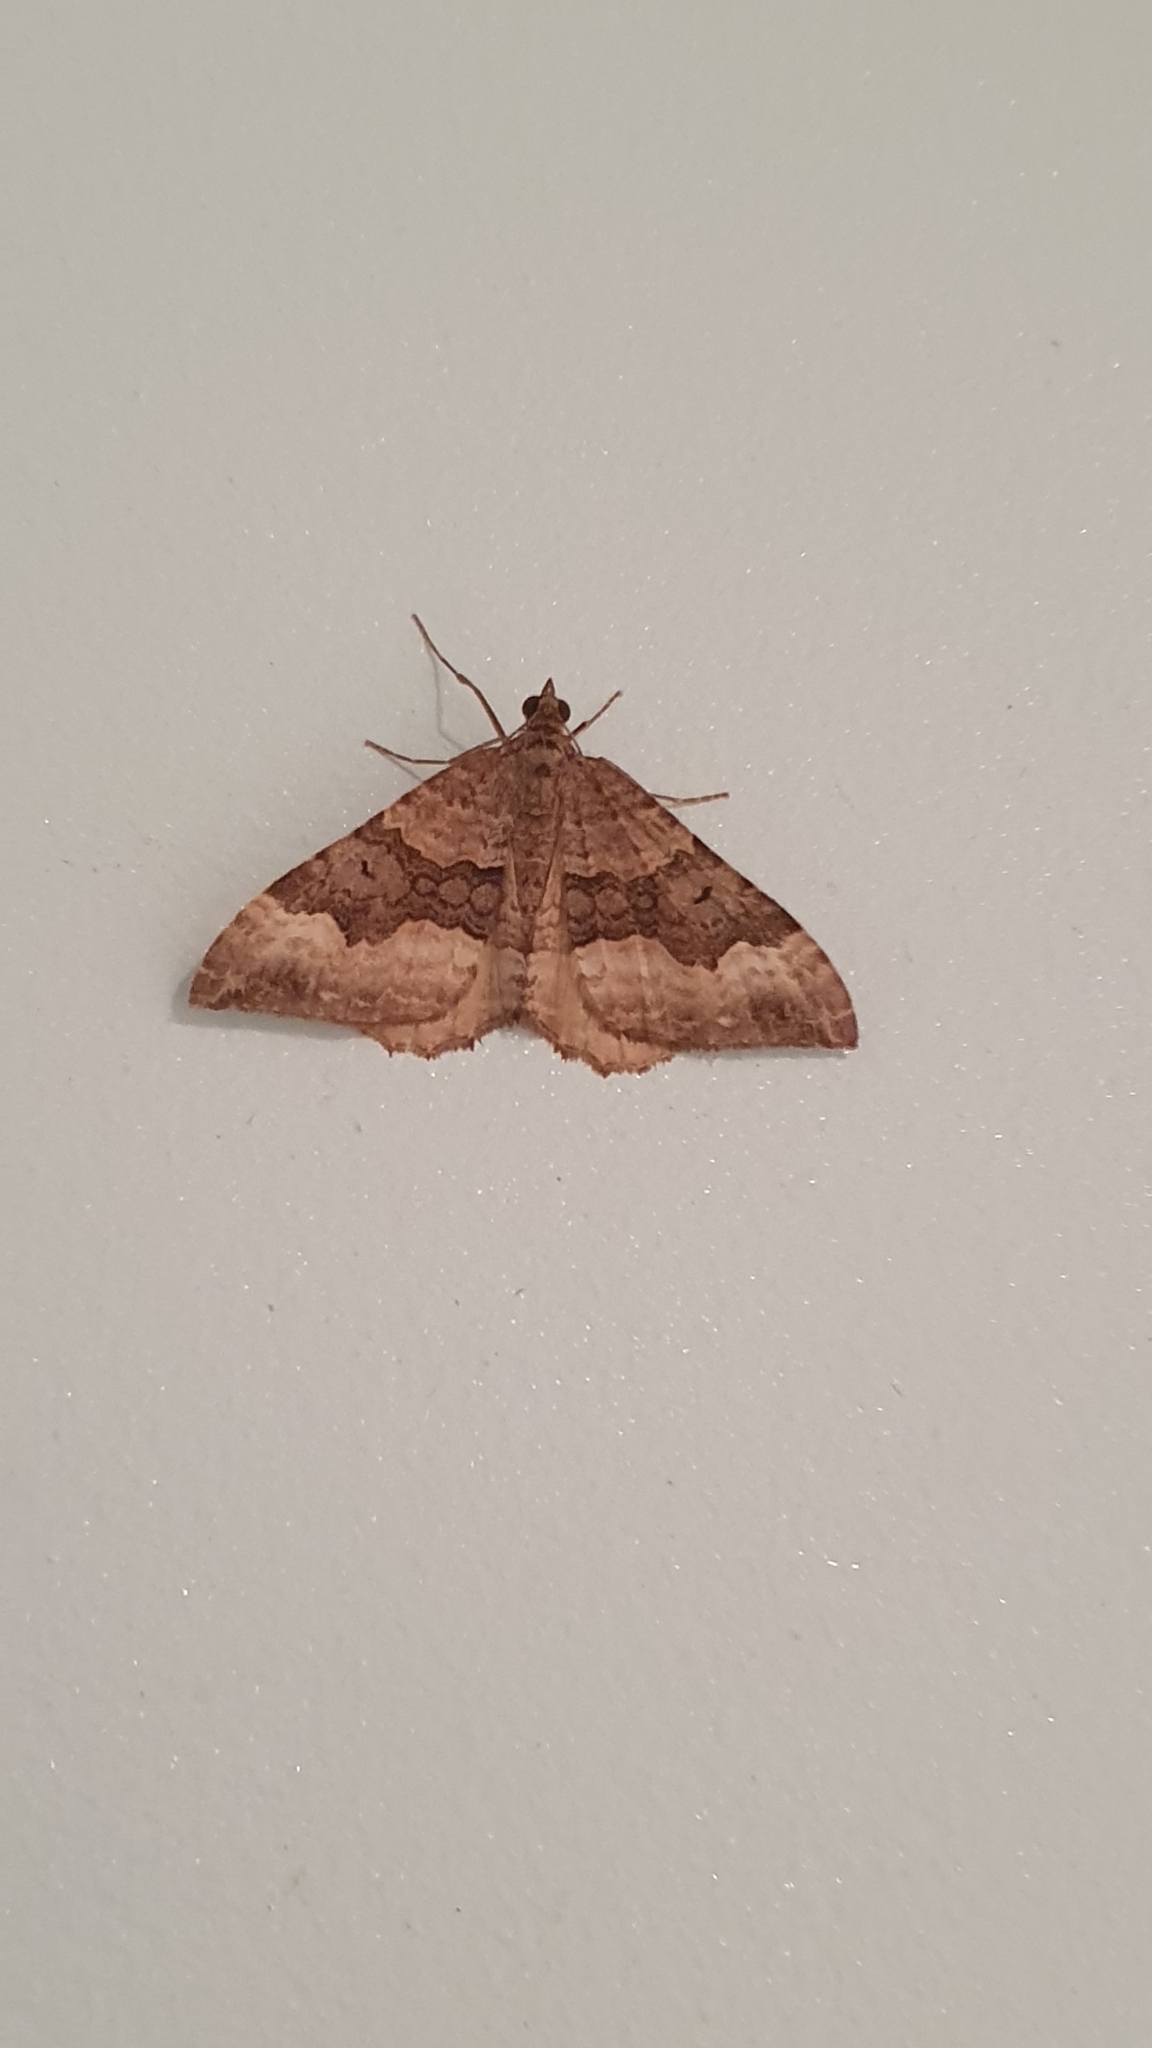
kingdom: Animalia
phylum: Arthropoda
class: Insecta
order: Lepidoptera
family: Geometridae
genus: Hydriomena
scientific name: Hydriomena deltoidata
